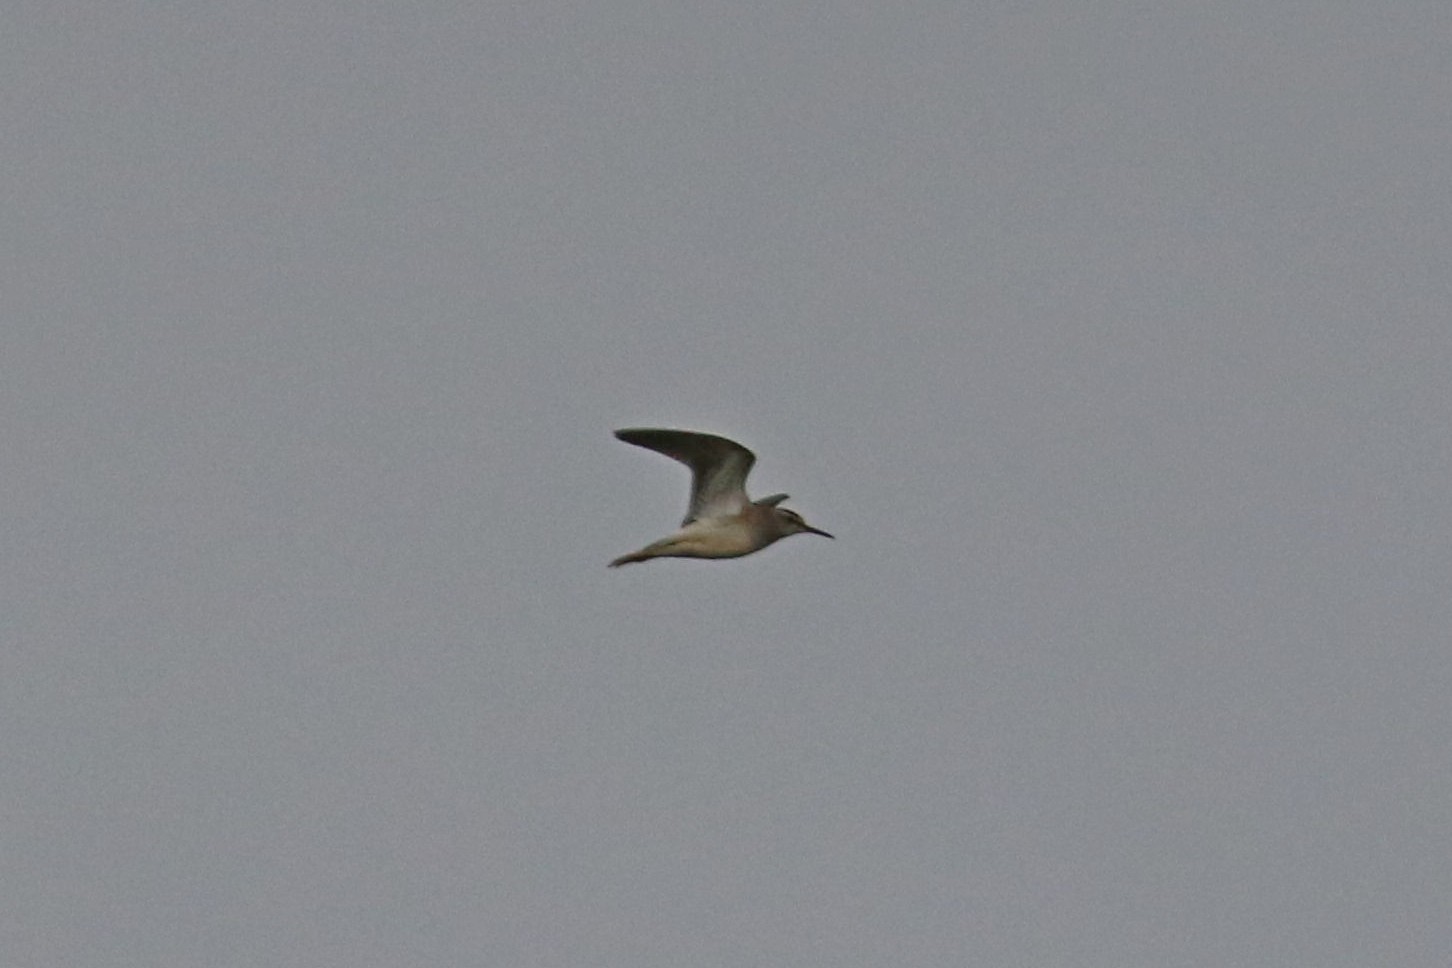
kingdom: Animalia
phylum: Chordata
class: Aves
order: Charadriiformes
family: Scolopacidae
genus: Tringa
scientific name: Tringa glareola
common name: Wood sandpiper
